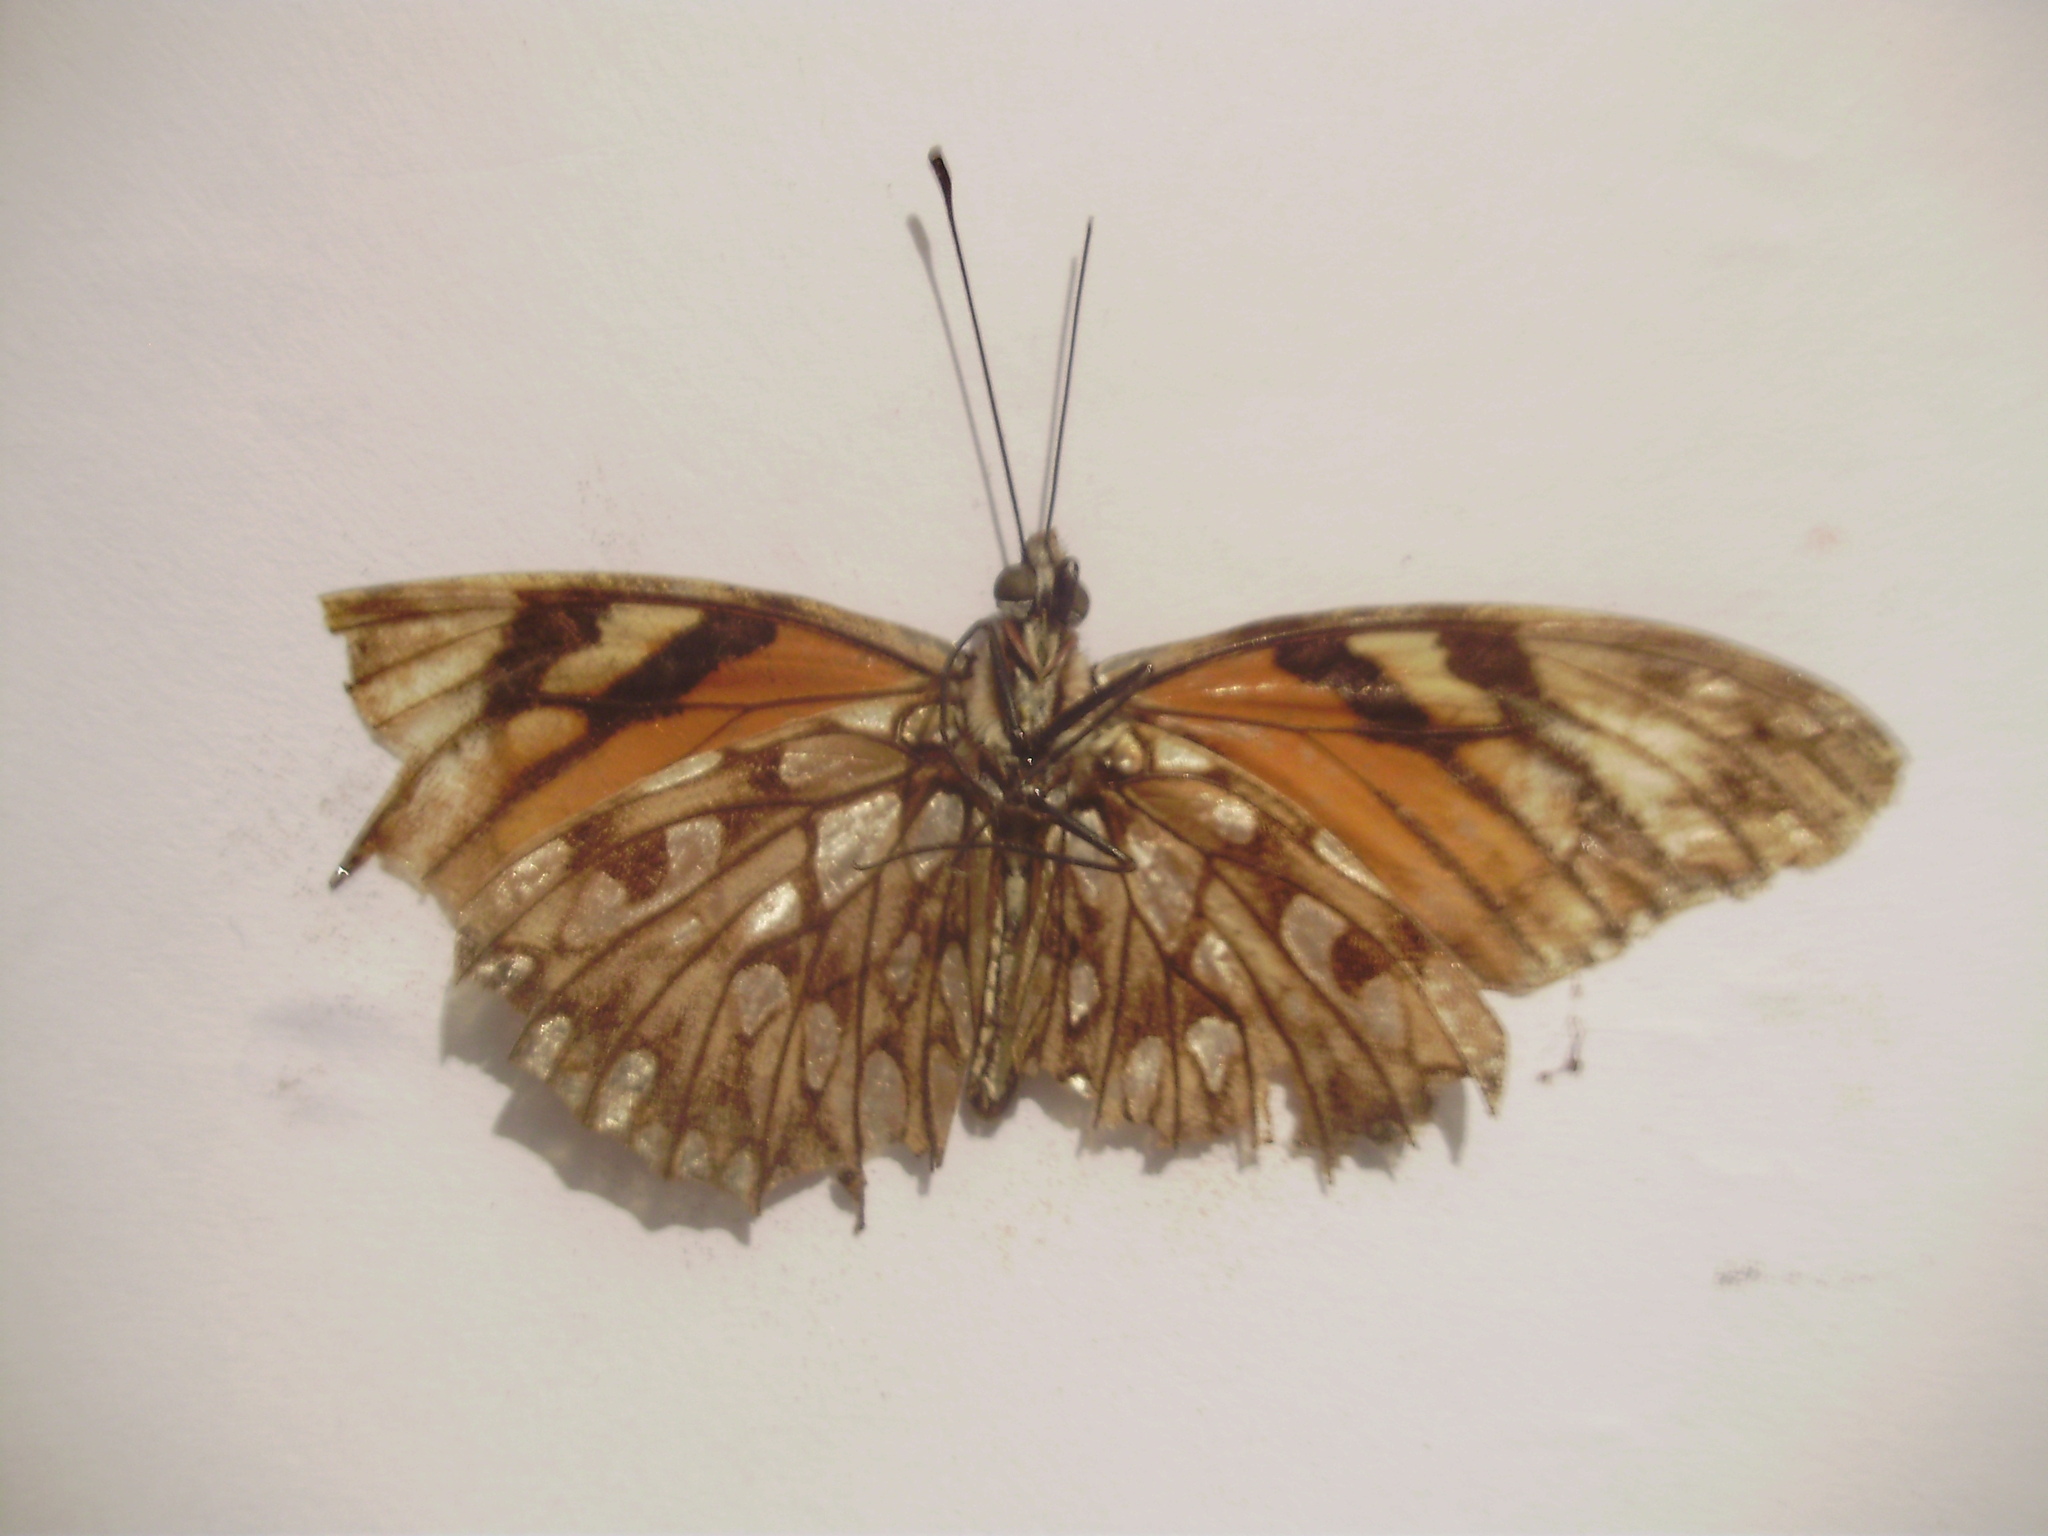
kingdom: Animalia
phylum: Arthropoda
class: Insecta
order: Lepidoptera
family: Nymphalidae
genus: Dione
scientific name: Dione juno
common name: Juno silverspot
